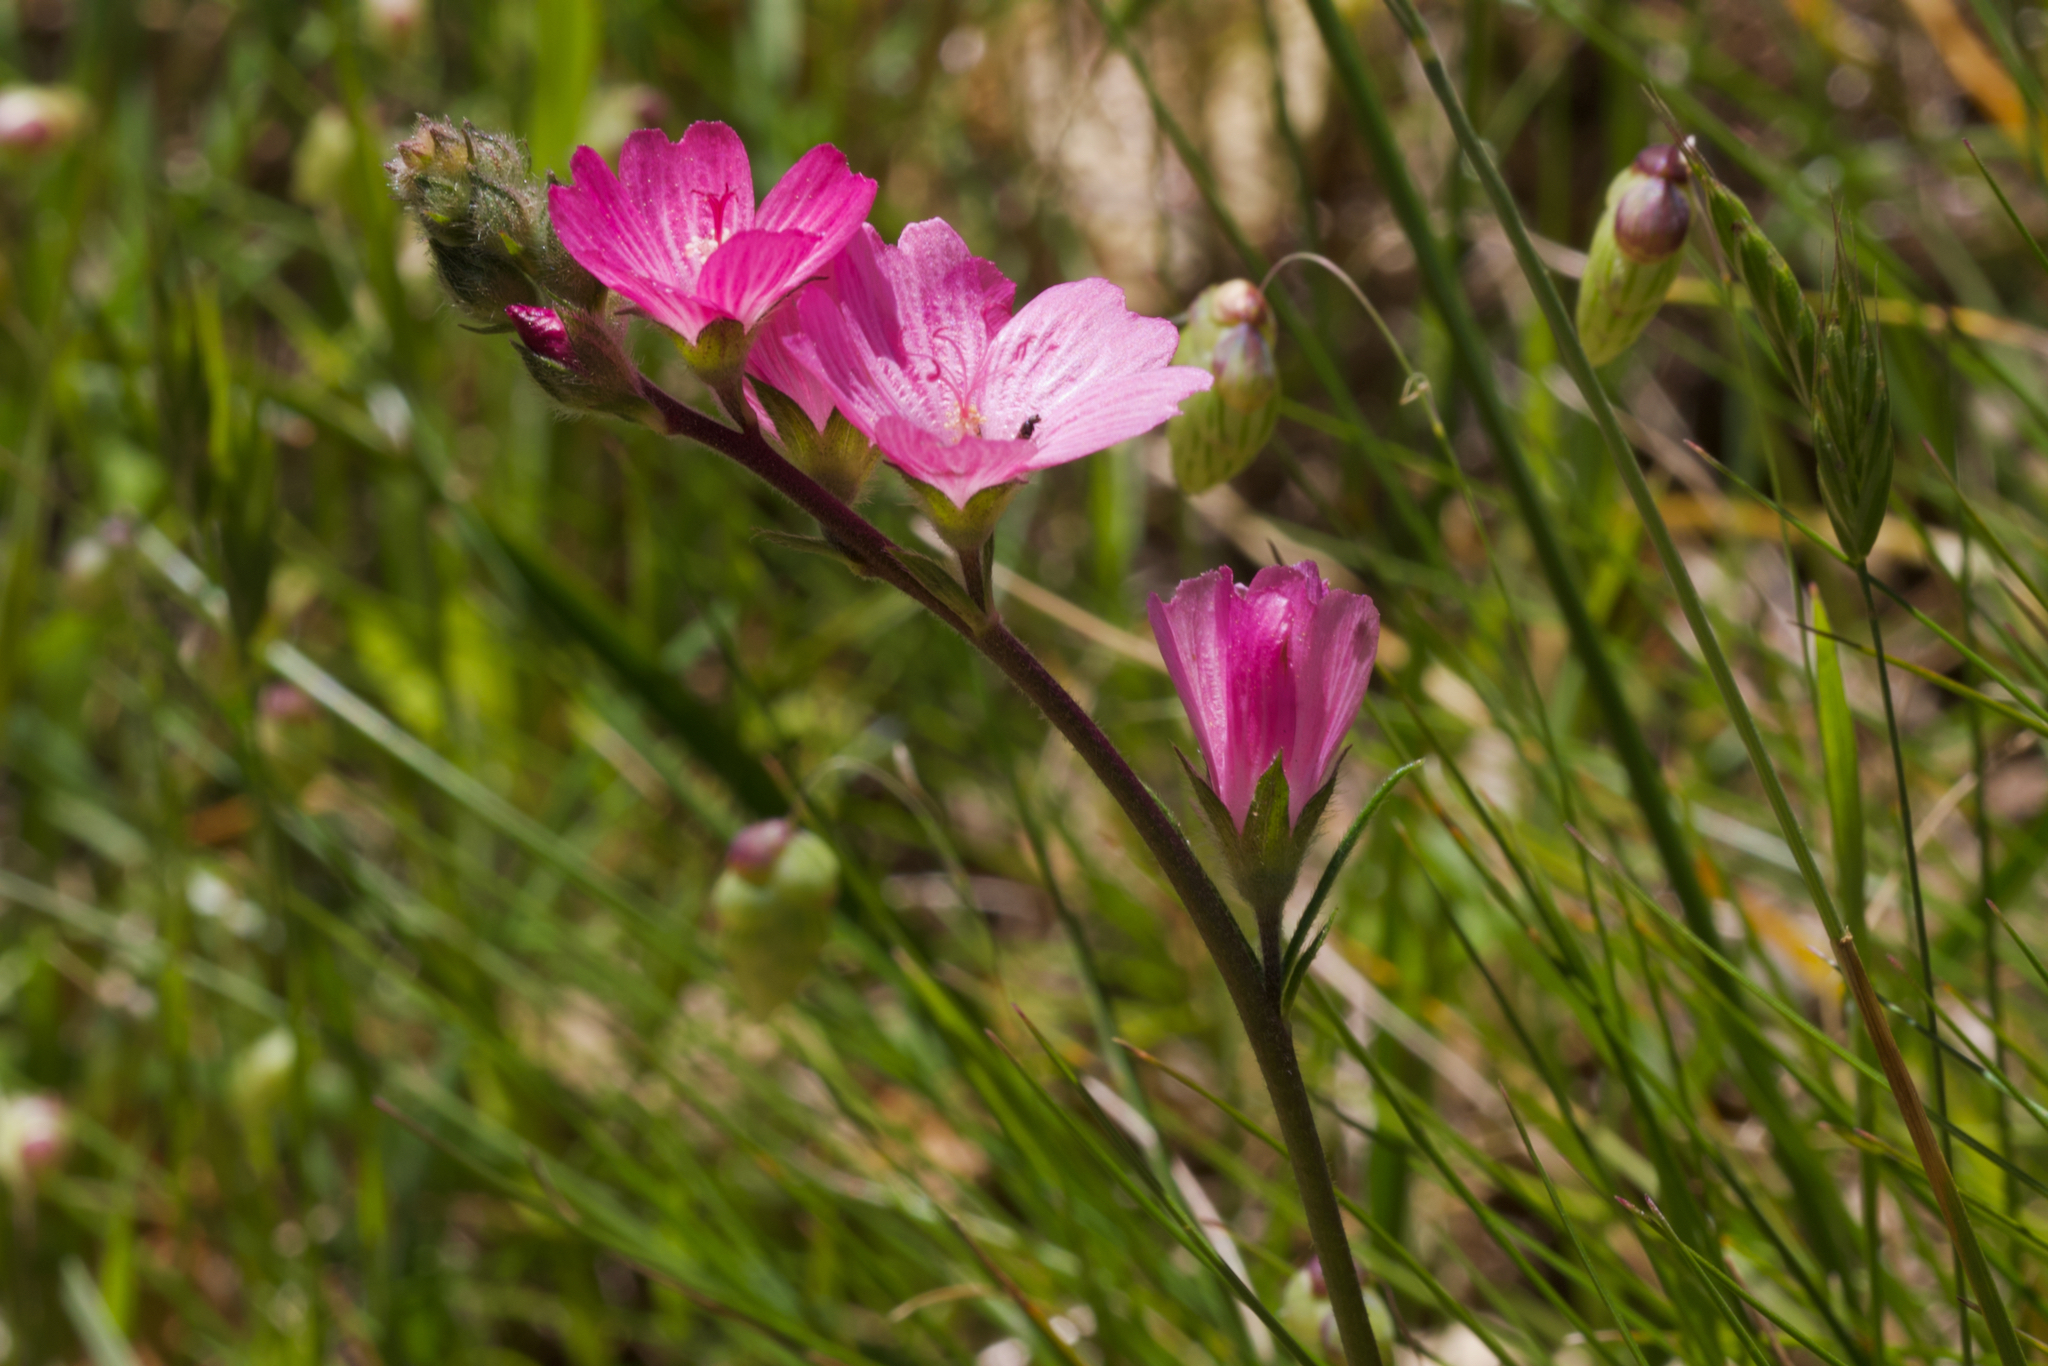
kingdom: Plantae
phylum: Tracheophyta
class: Magnoliopsida
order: Malvales
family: Malvaceae
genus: Sidalcea
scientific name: Sidalcea malviflora
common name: Greek mallow
